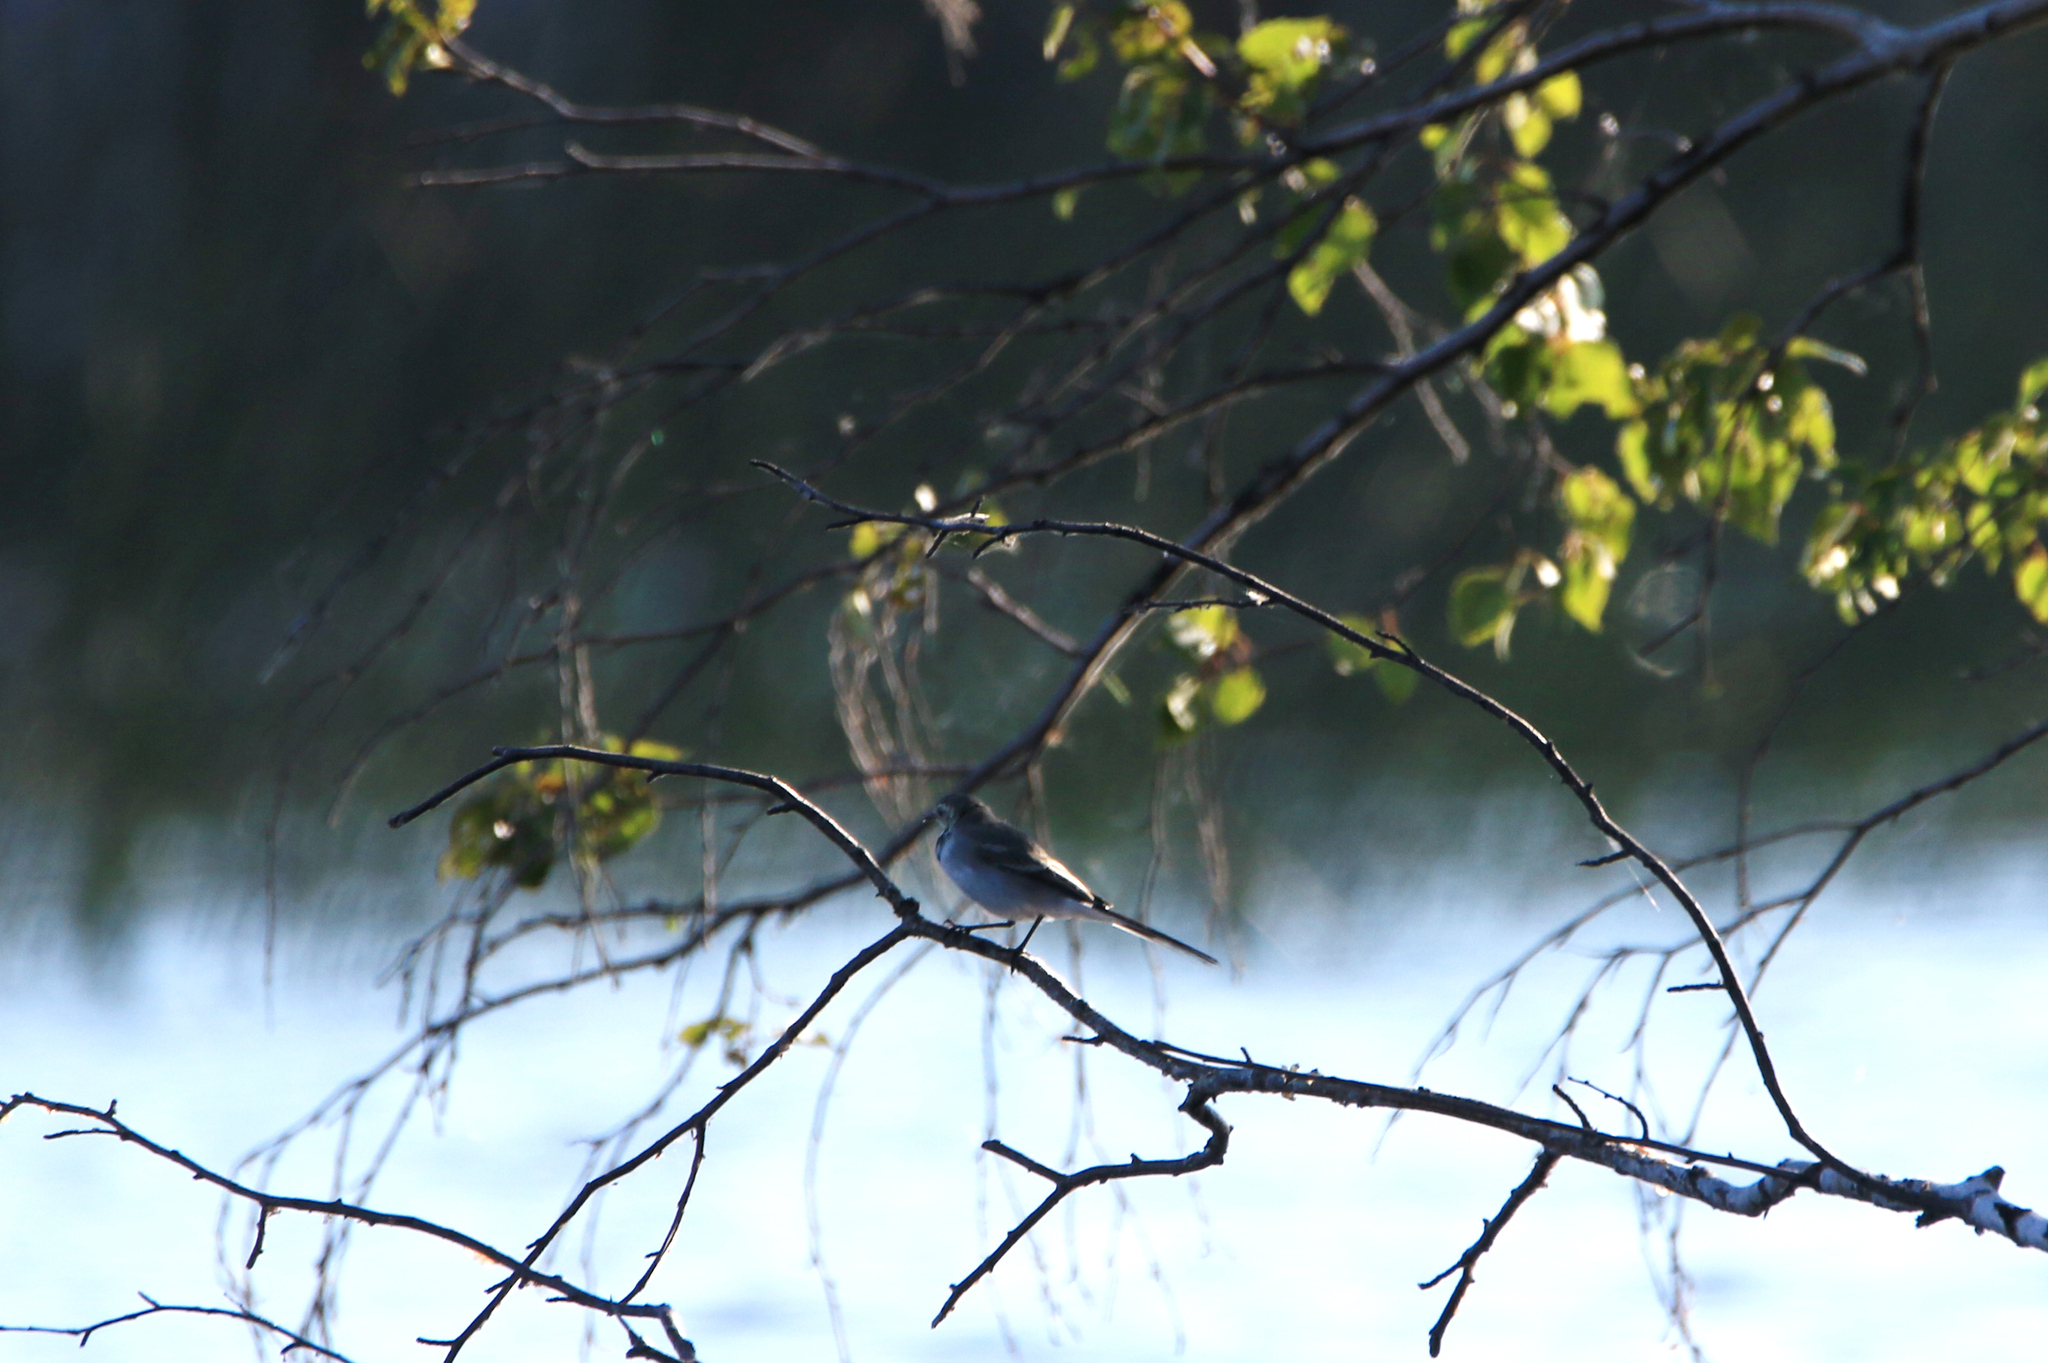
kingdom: Animalia
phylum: Chordata
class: Aves
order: Passeriformes
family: Motacillidae
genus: Motacilla
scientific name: Motacilla alba
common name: White wagtail
